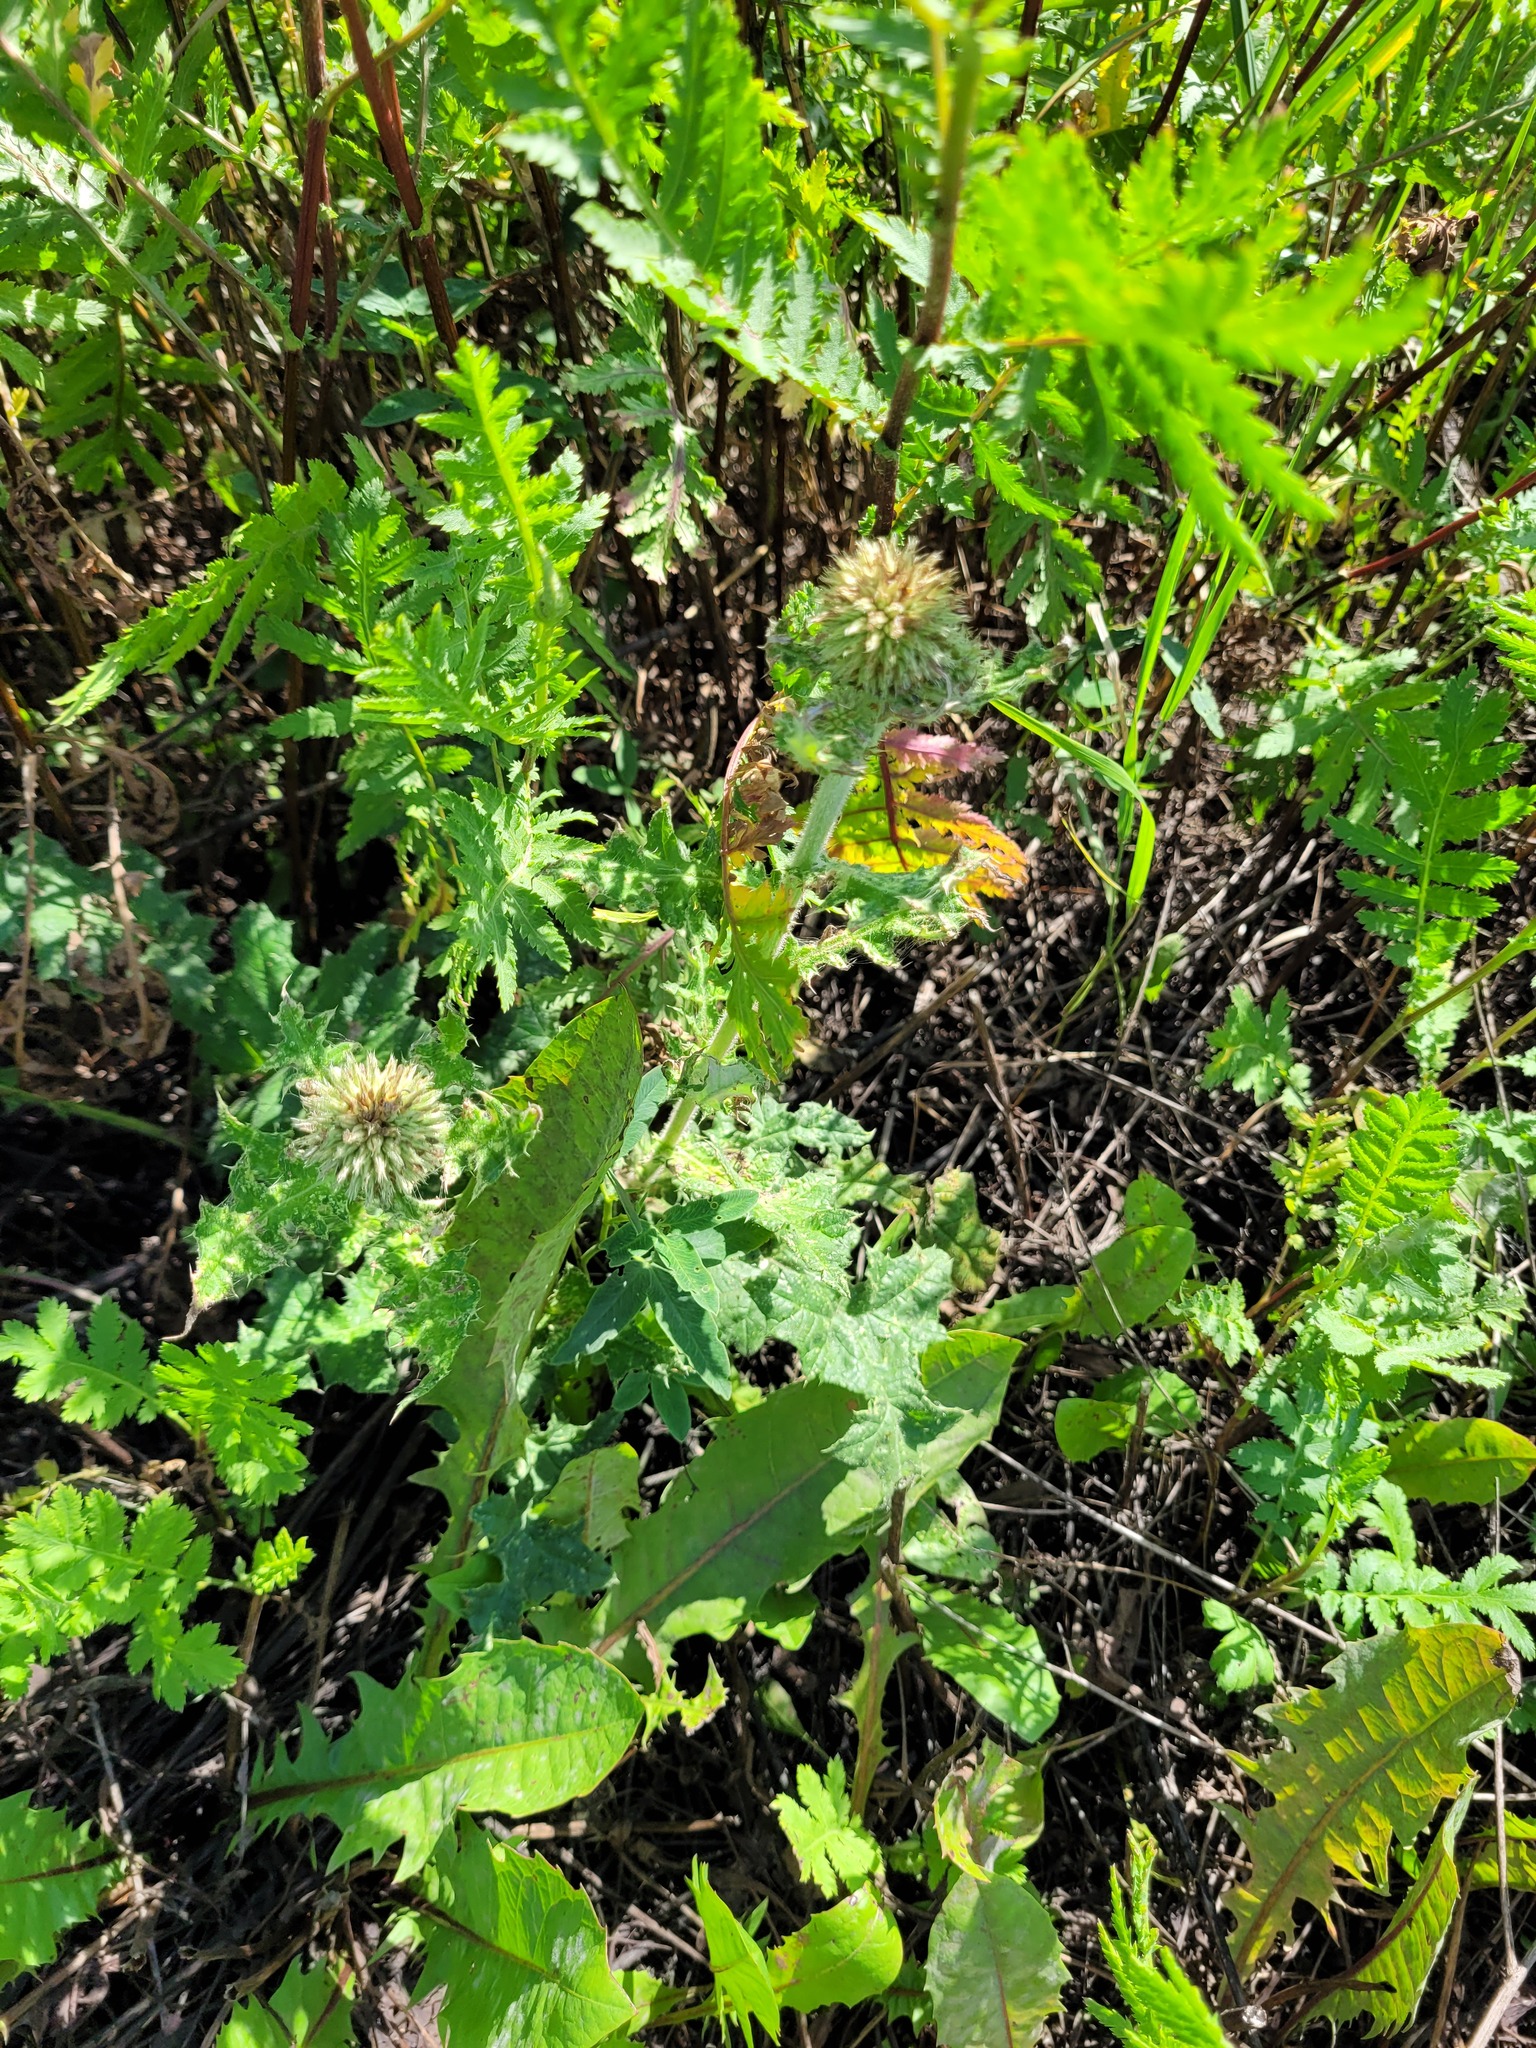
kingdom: Plantae
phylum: Tracheophyta
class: Magnoliopsida
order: Asterales
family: Asteraceae
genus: Echinops
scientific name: Echinops sphaerocephalus
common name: Glandular globe-thistle
